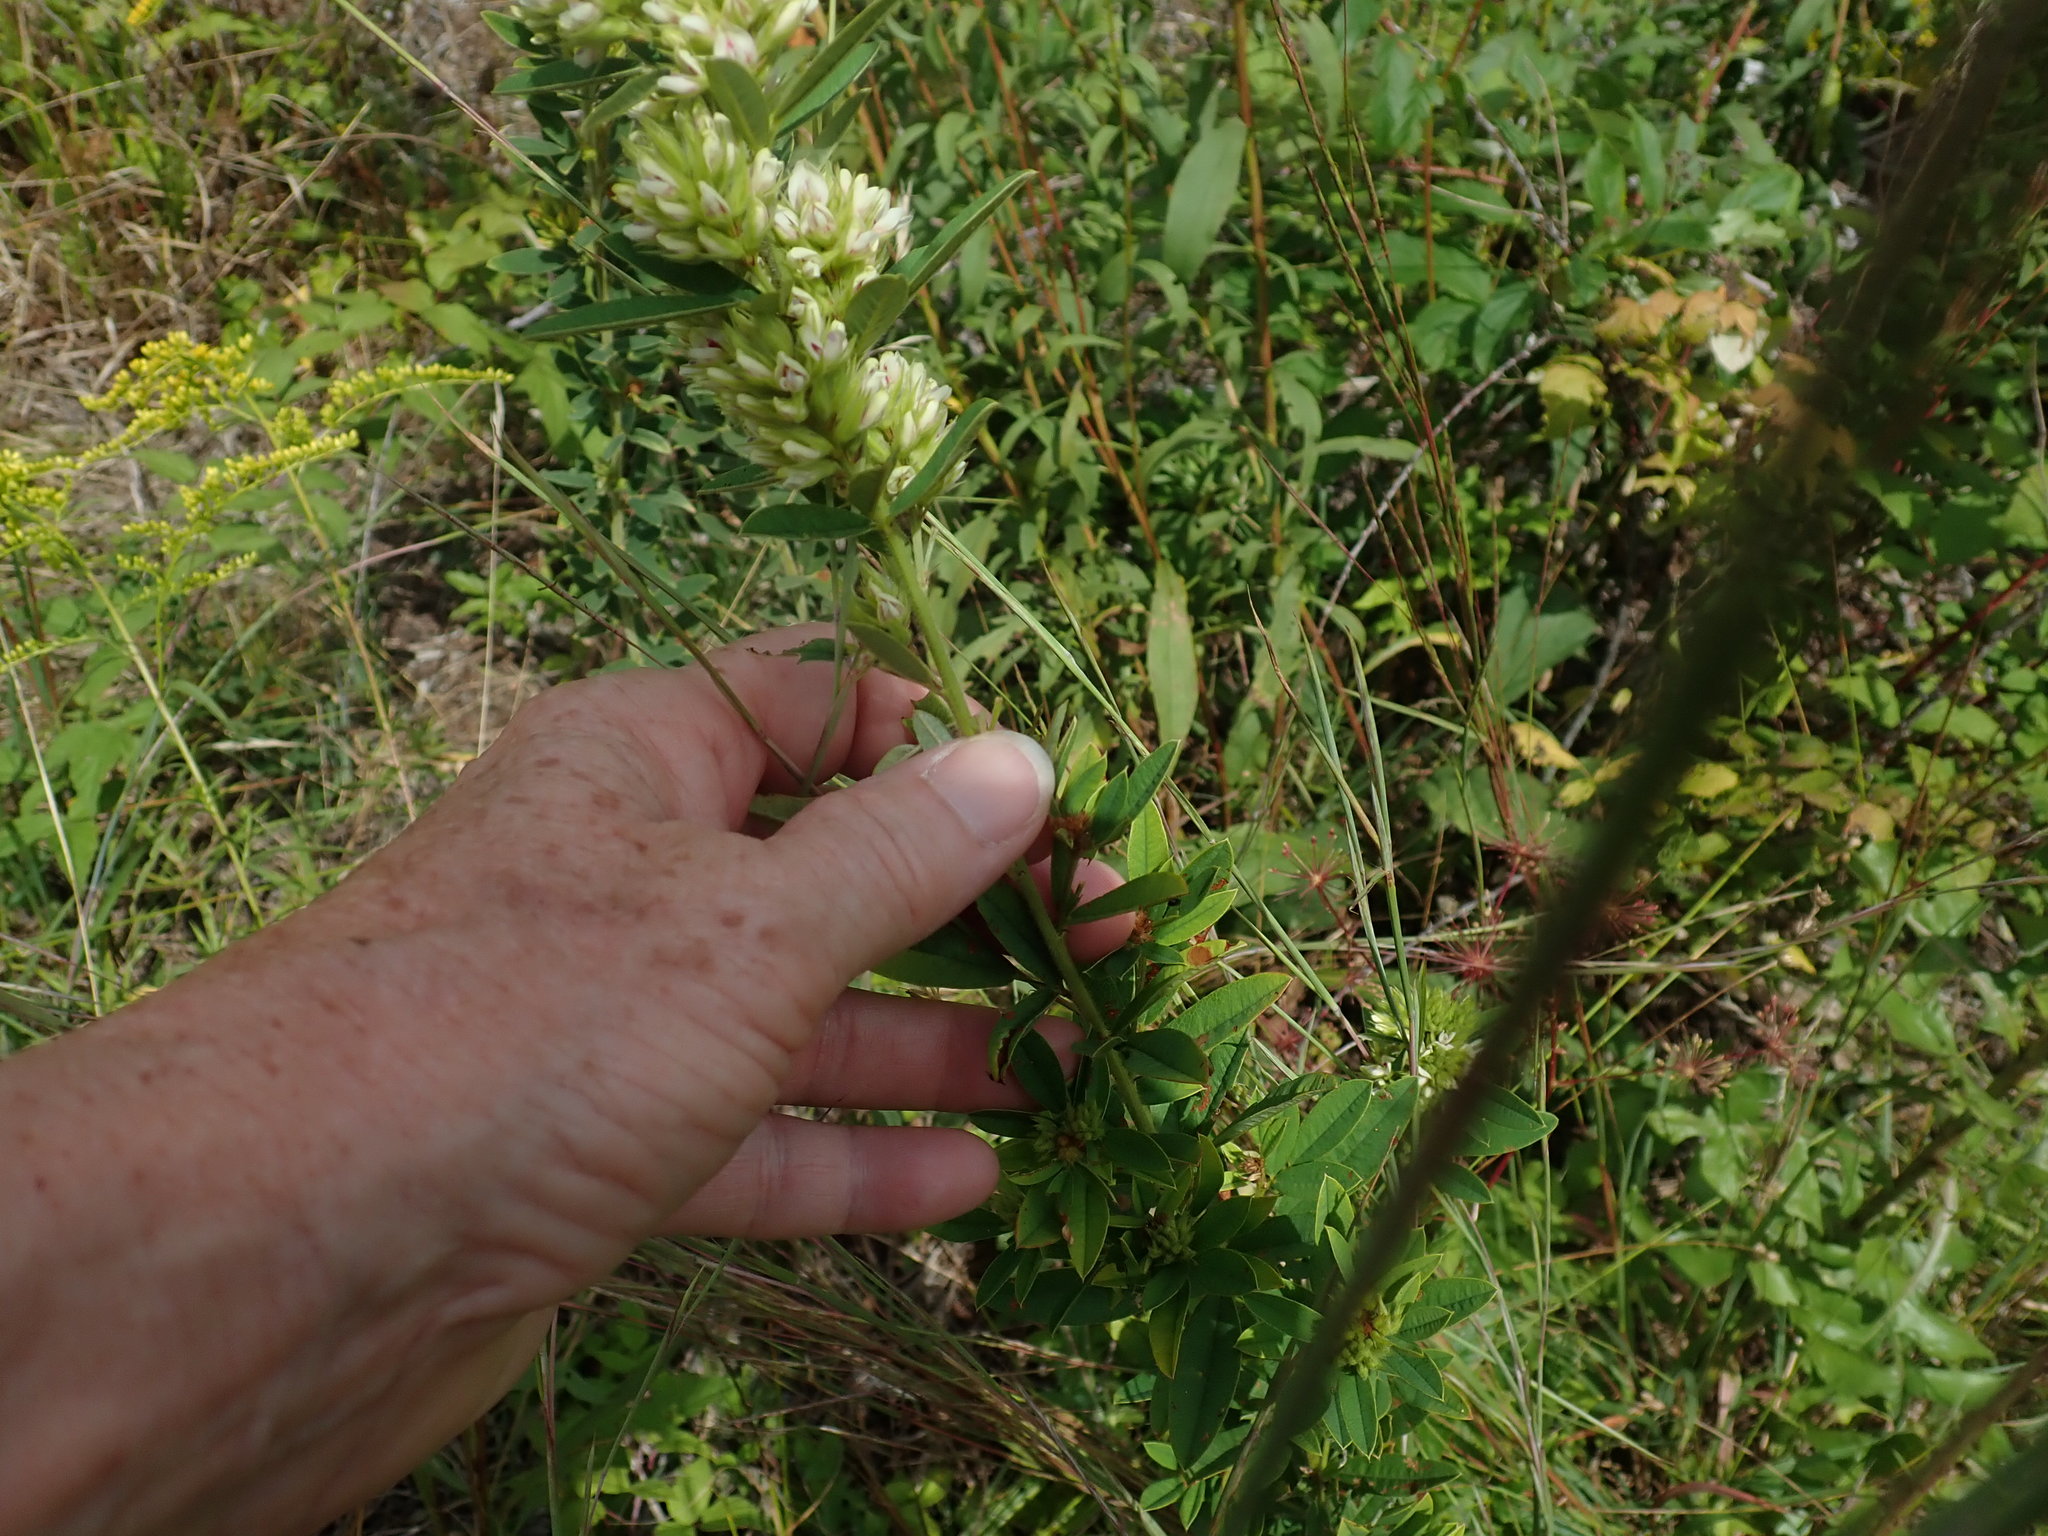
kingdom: Plantae
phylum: Tracheophyta
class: Magnoliopsida
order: Fabales
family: Fabaceae
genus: Lespedeza
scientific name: Lespedeza capitata
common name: Dusty clover
